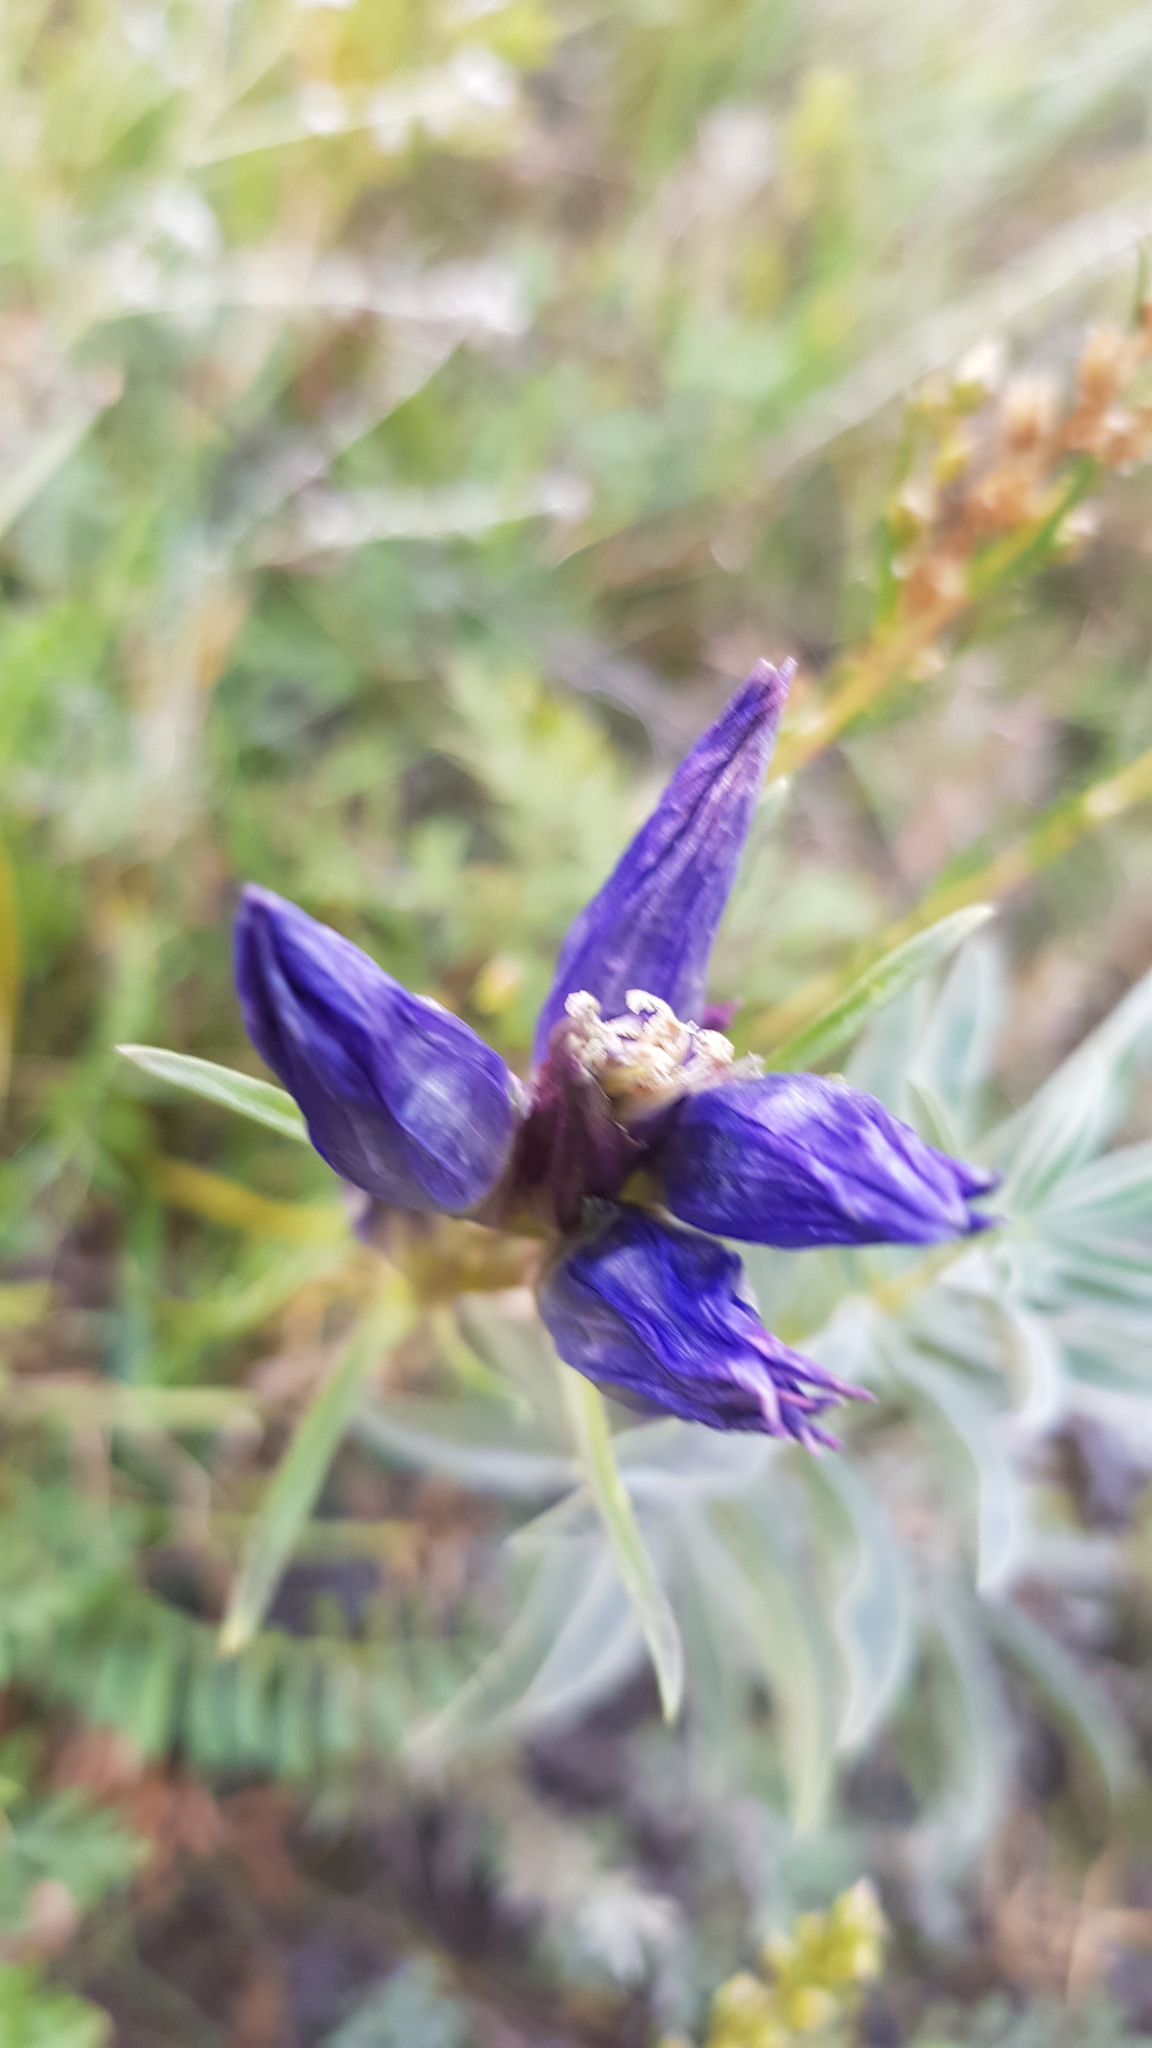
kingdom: Plantae
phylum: Tracheophyta
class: Magnoliopsida
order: Gentianales
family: Gentianaceae
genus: Gentiana
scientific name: Gentiana decumbens
